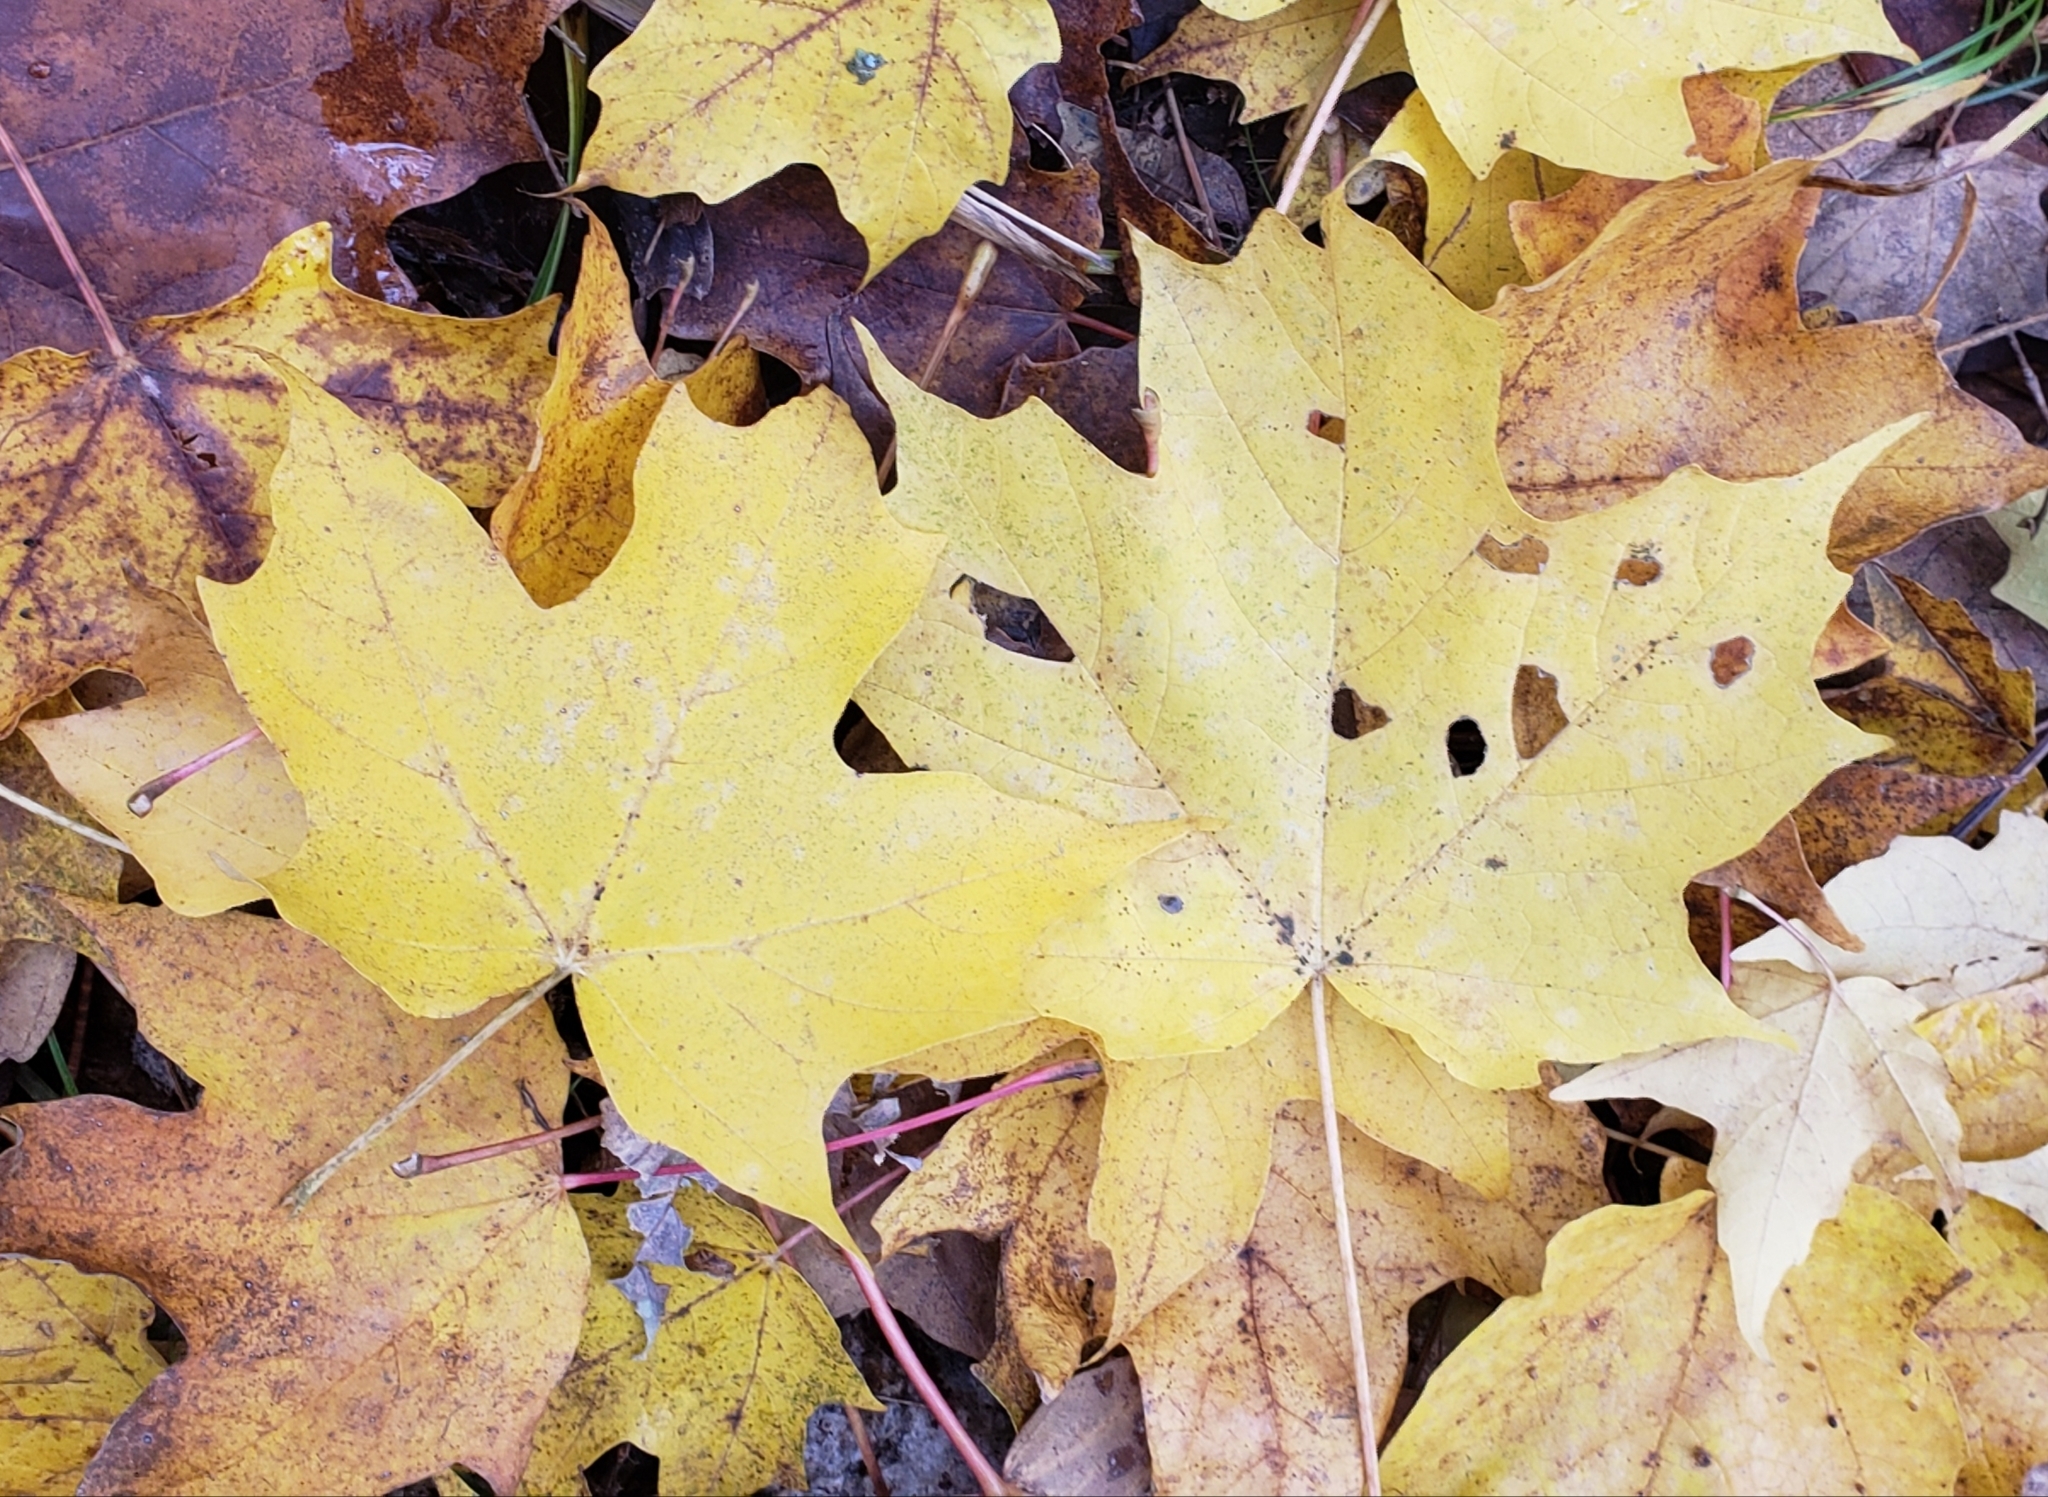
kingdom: Plantae
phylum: Tracheophyta
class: Magnoliopsida
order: Sapindales
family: Sapindaceae
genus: Acer
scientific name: Acer saccharum
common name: Sugar maple
